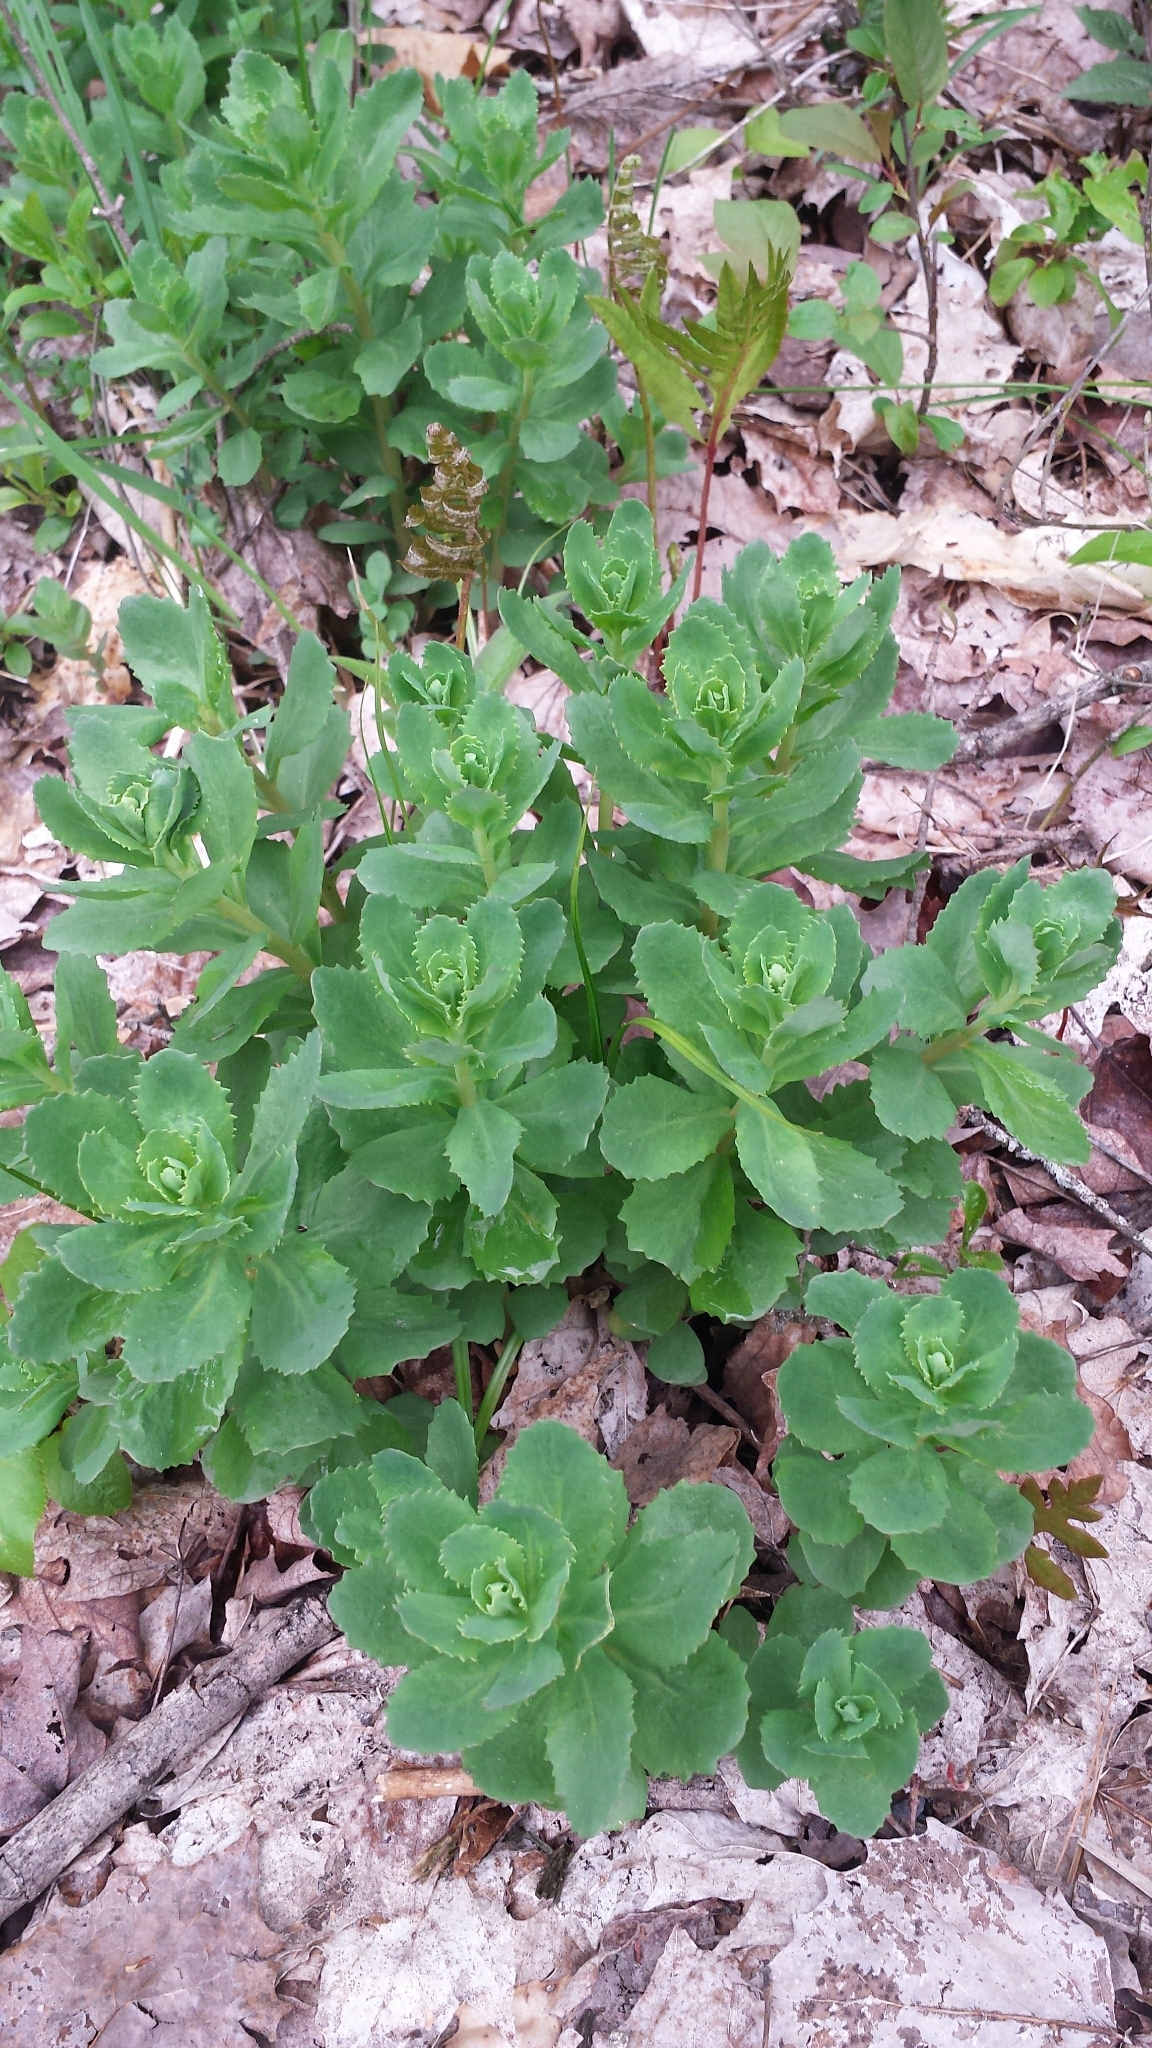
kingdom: Plantae
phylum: Tracheophyta
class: Magnoliopsida
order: Saxifragales
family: Crassulaceae
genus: Hylotelephium
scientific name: Hylotelephium telephium
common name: Live-forever
